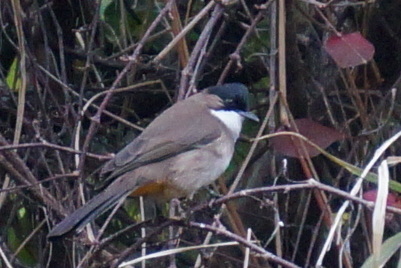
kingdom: Animalia
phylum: Chordata
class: Aves
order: Passeriformes
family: Pycnonotidae
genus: Pycnonotus
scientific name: Pycnonotus xanthorrhous
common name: Brown-breasted bulbul
